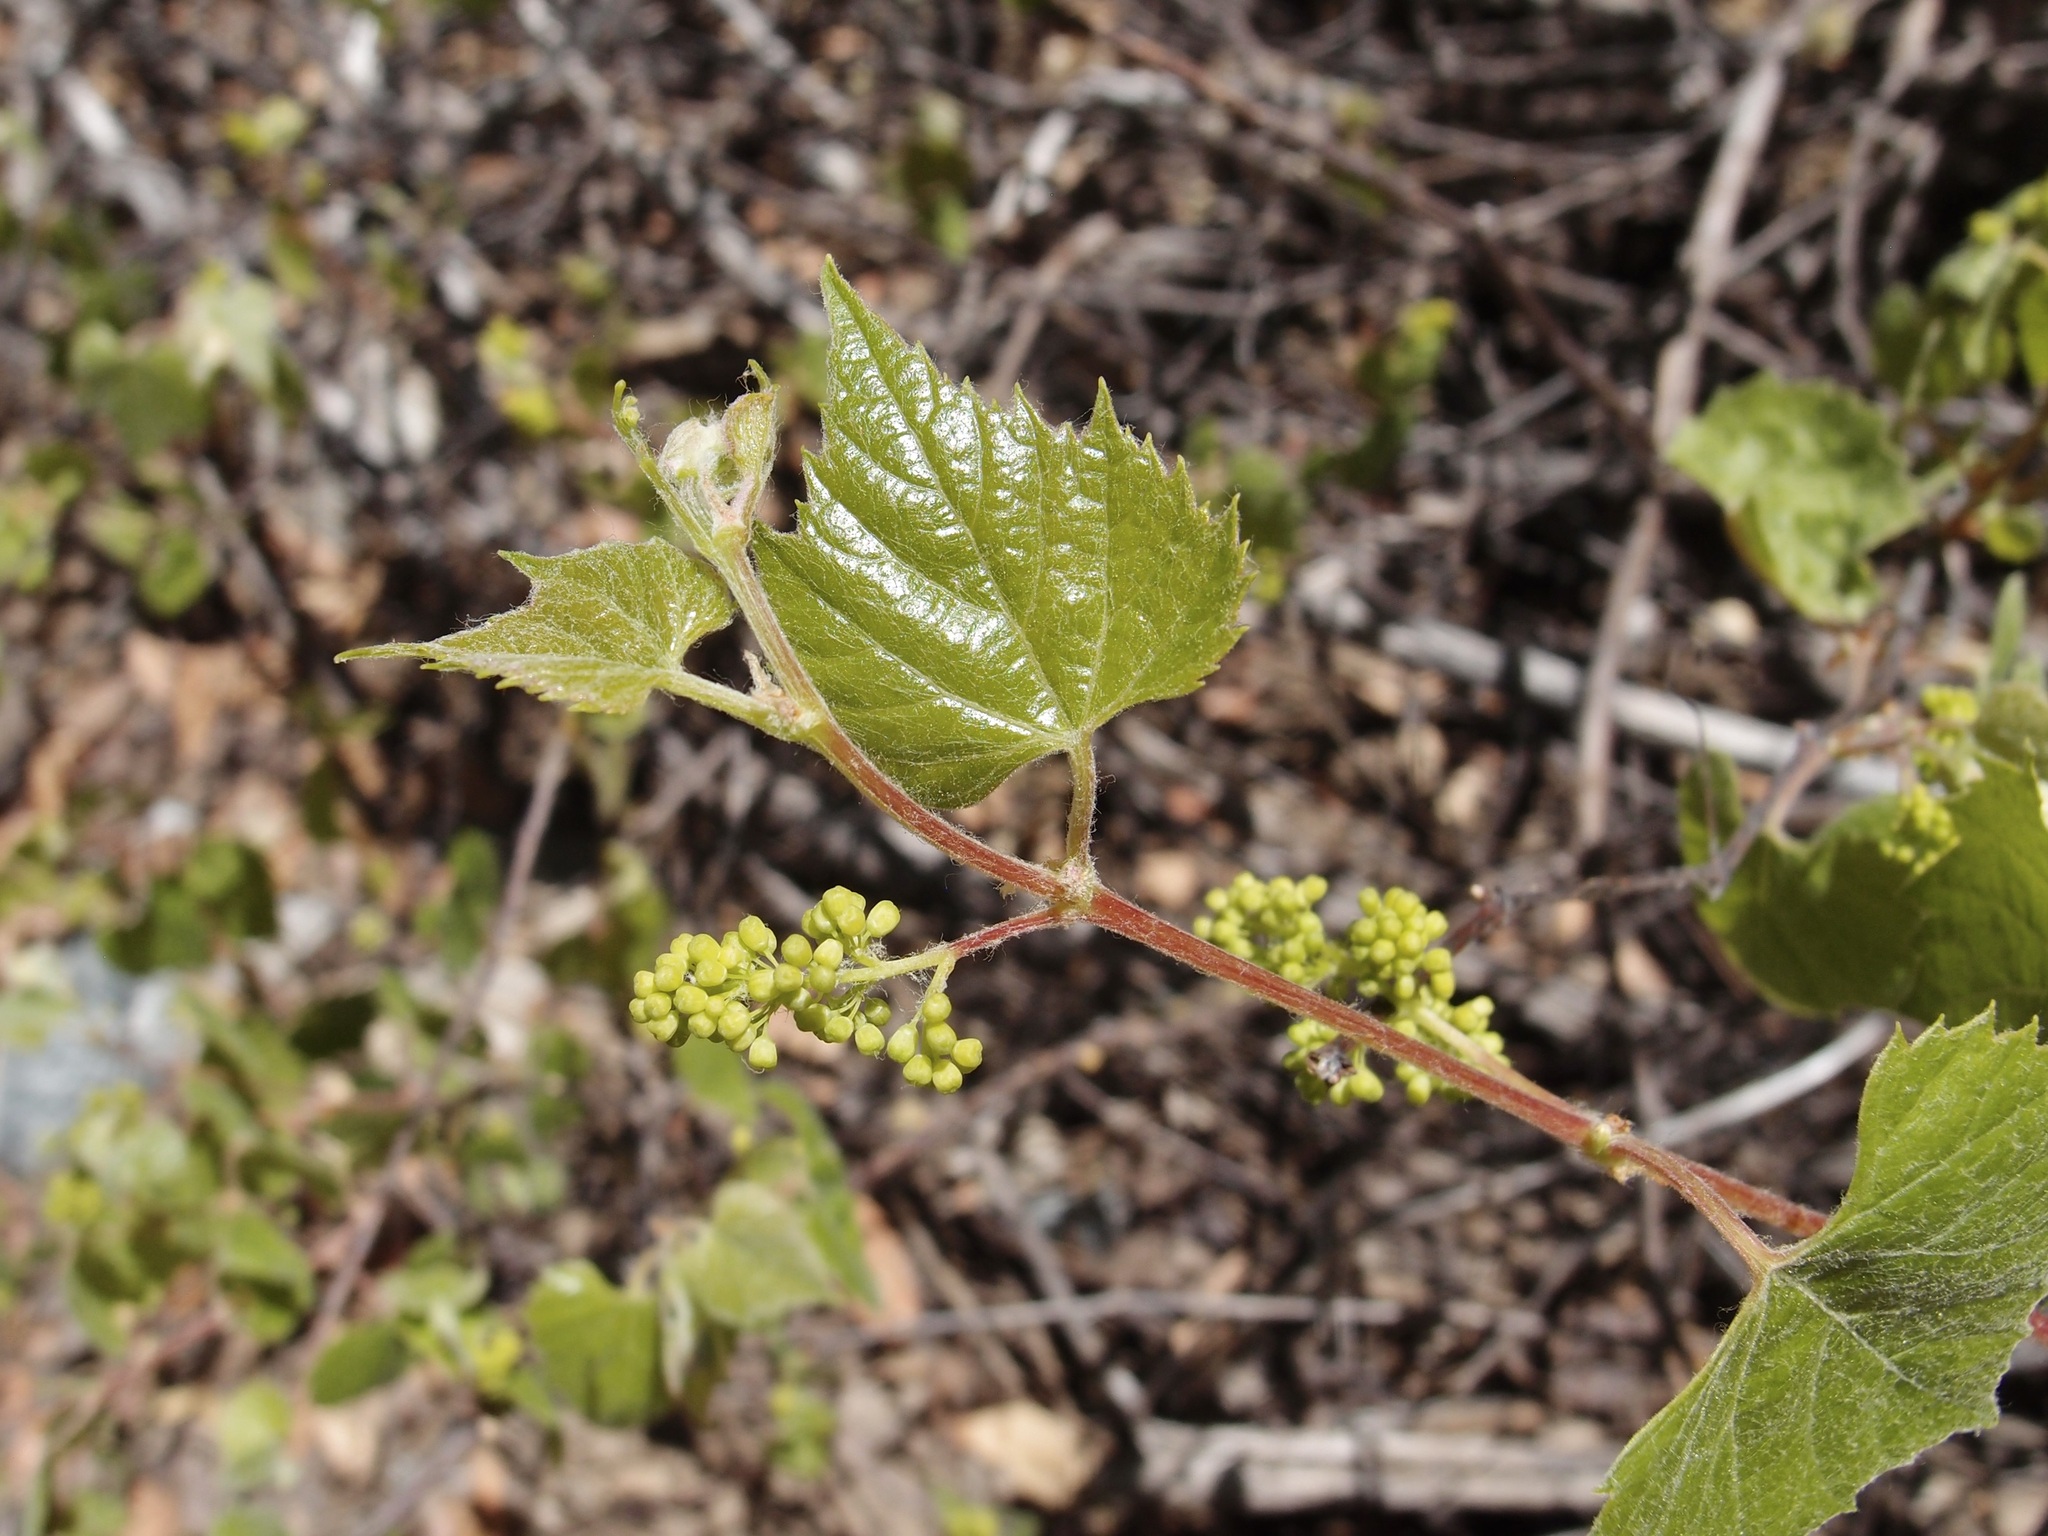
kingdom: Plantae
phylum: Tracheophyta
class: Magnoliopsida
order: Vitales
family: Vitaceae
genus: Vitis
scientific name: Vitis arizonica
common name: Canyon grape
